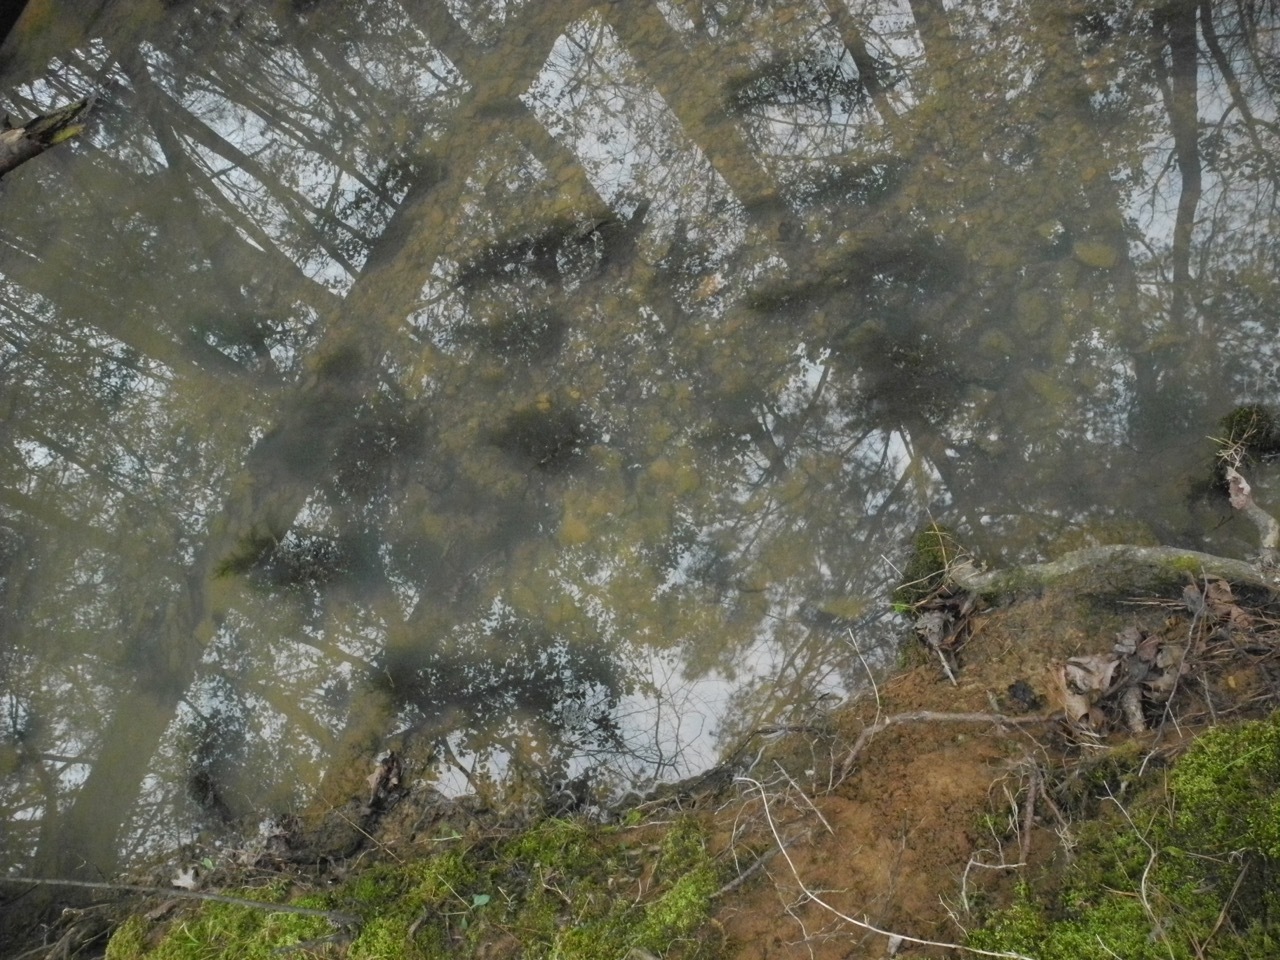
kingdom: Plantae
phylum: Bryophyta
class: Bryopsida
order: Hypnales
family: Fontinalaceae
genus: Fontinalis
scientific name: Fontinalis novae-angliae
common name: New england water moss
